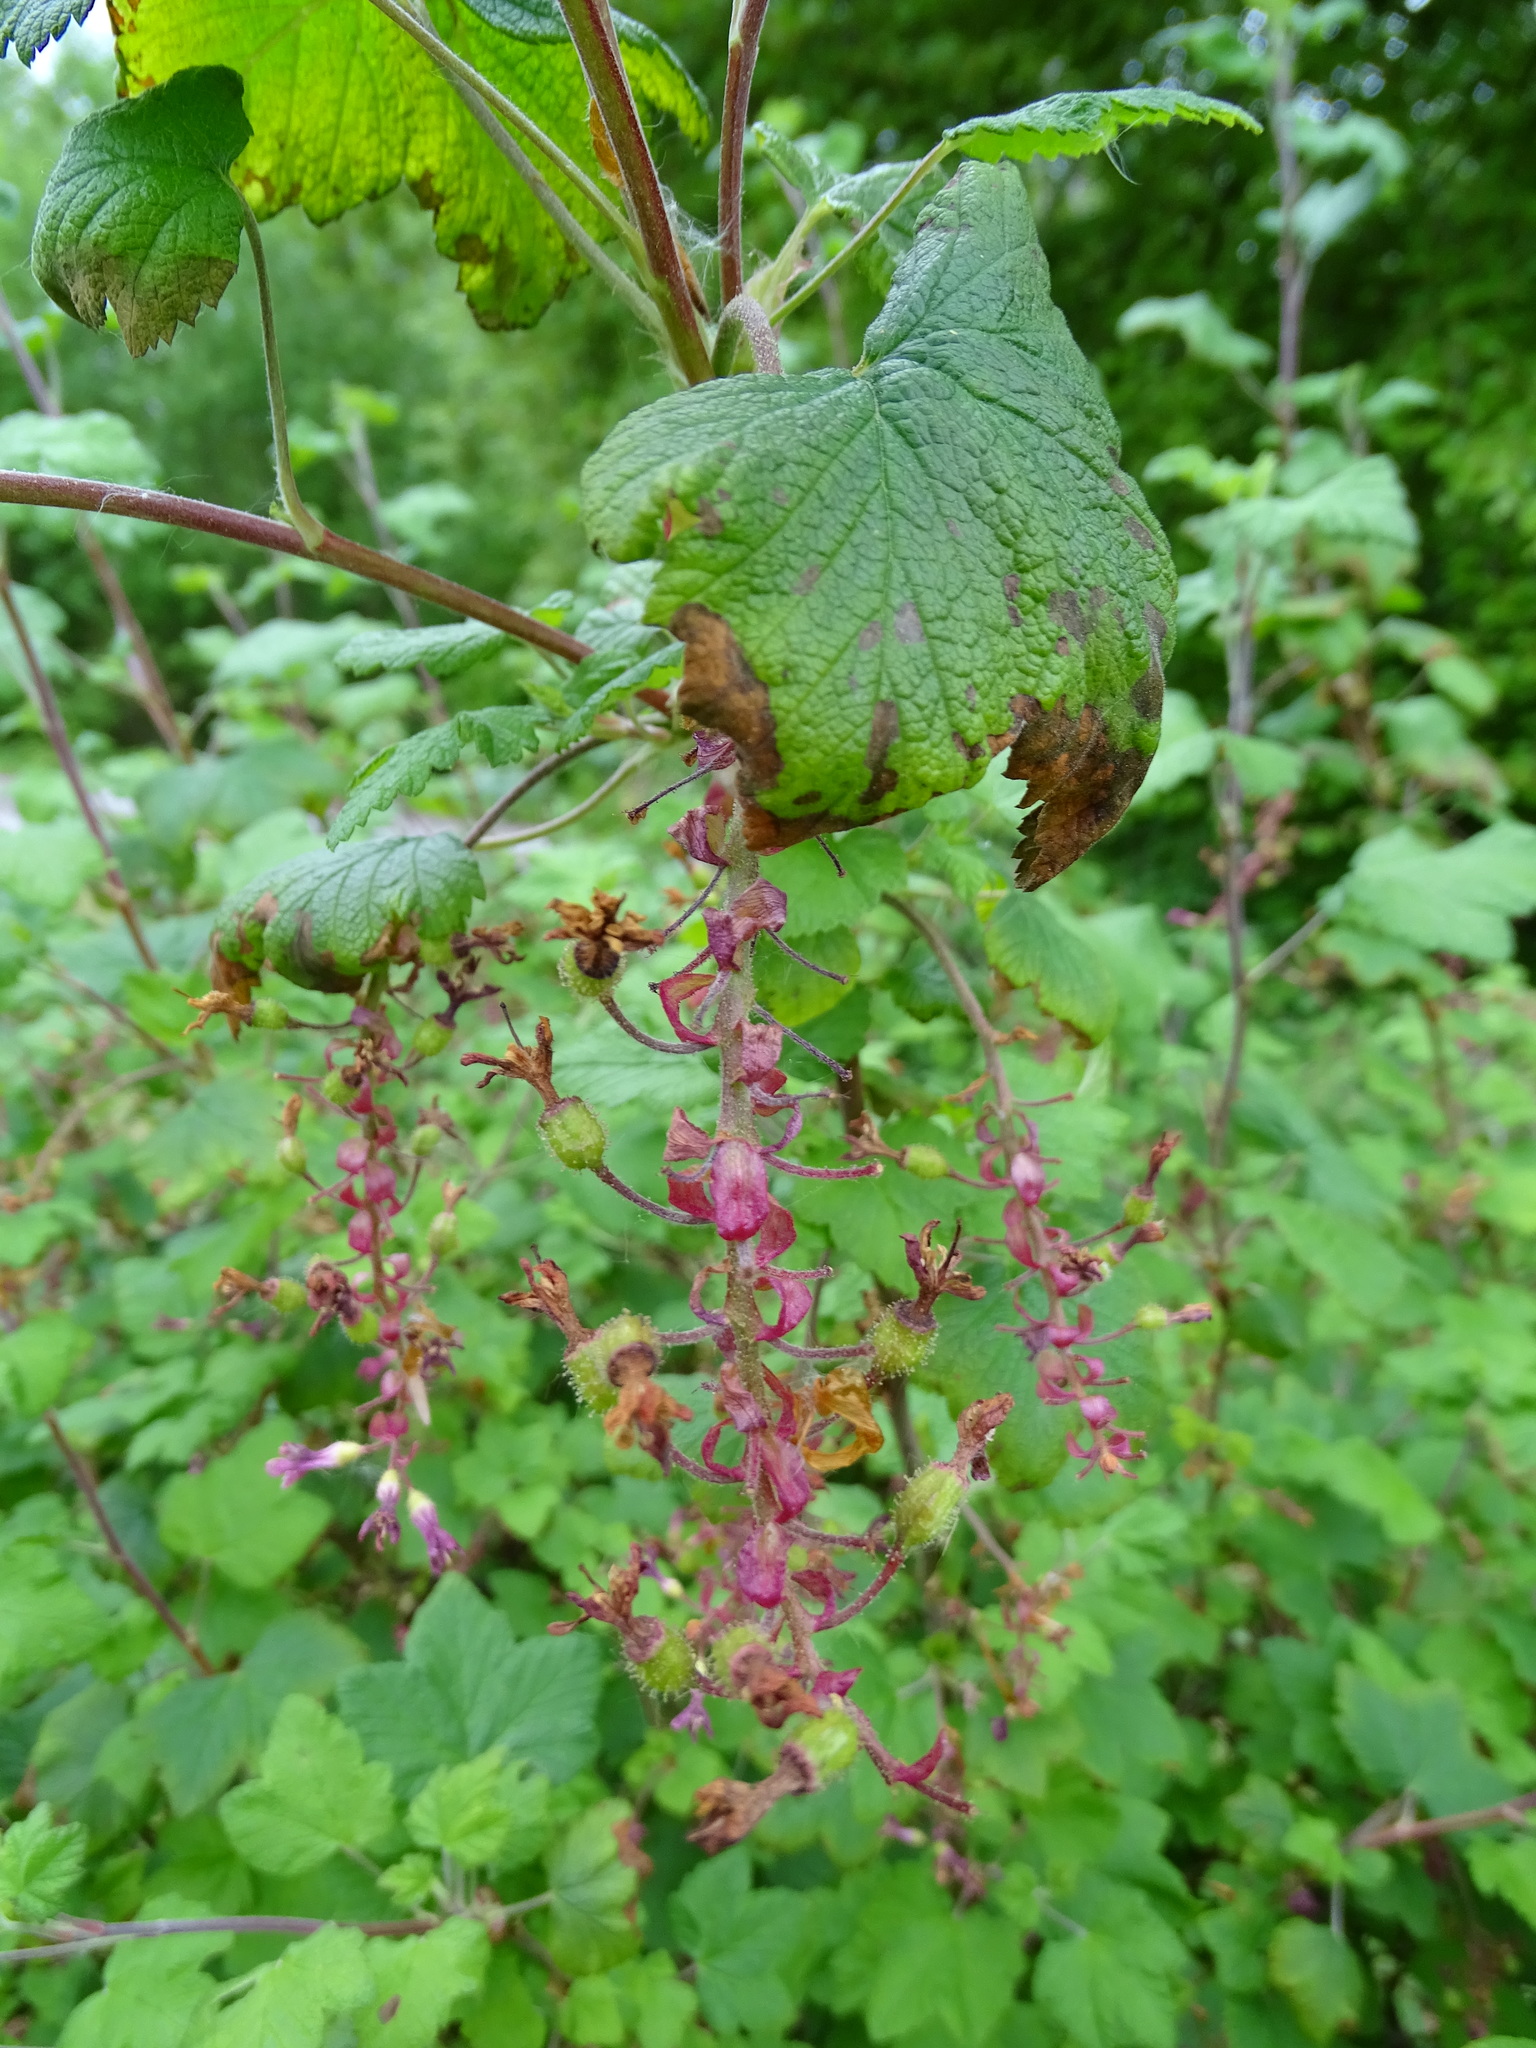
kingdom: Plantae
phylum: Tracheophyta
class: Magnoliopsida
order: Saxifragales
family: Grossulariaceae
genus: Ribes
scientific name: Ribes sanguineum
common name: Flowering currant
